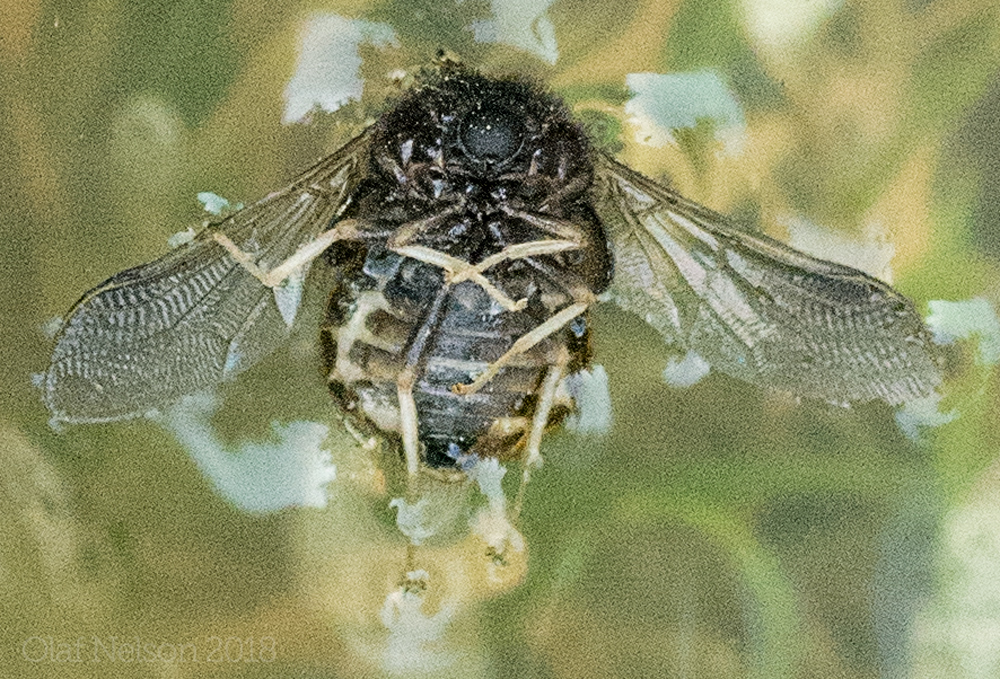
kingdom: Animalia
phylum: Arthropoda
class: Insecta
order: Diptera
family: Acroceridae
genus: Pterodontia
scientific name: Pterodontia flavipes
